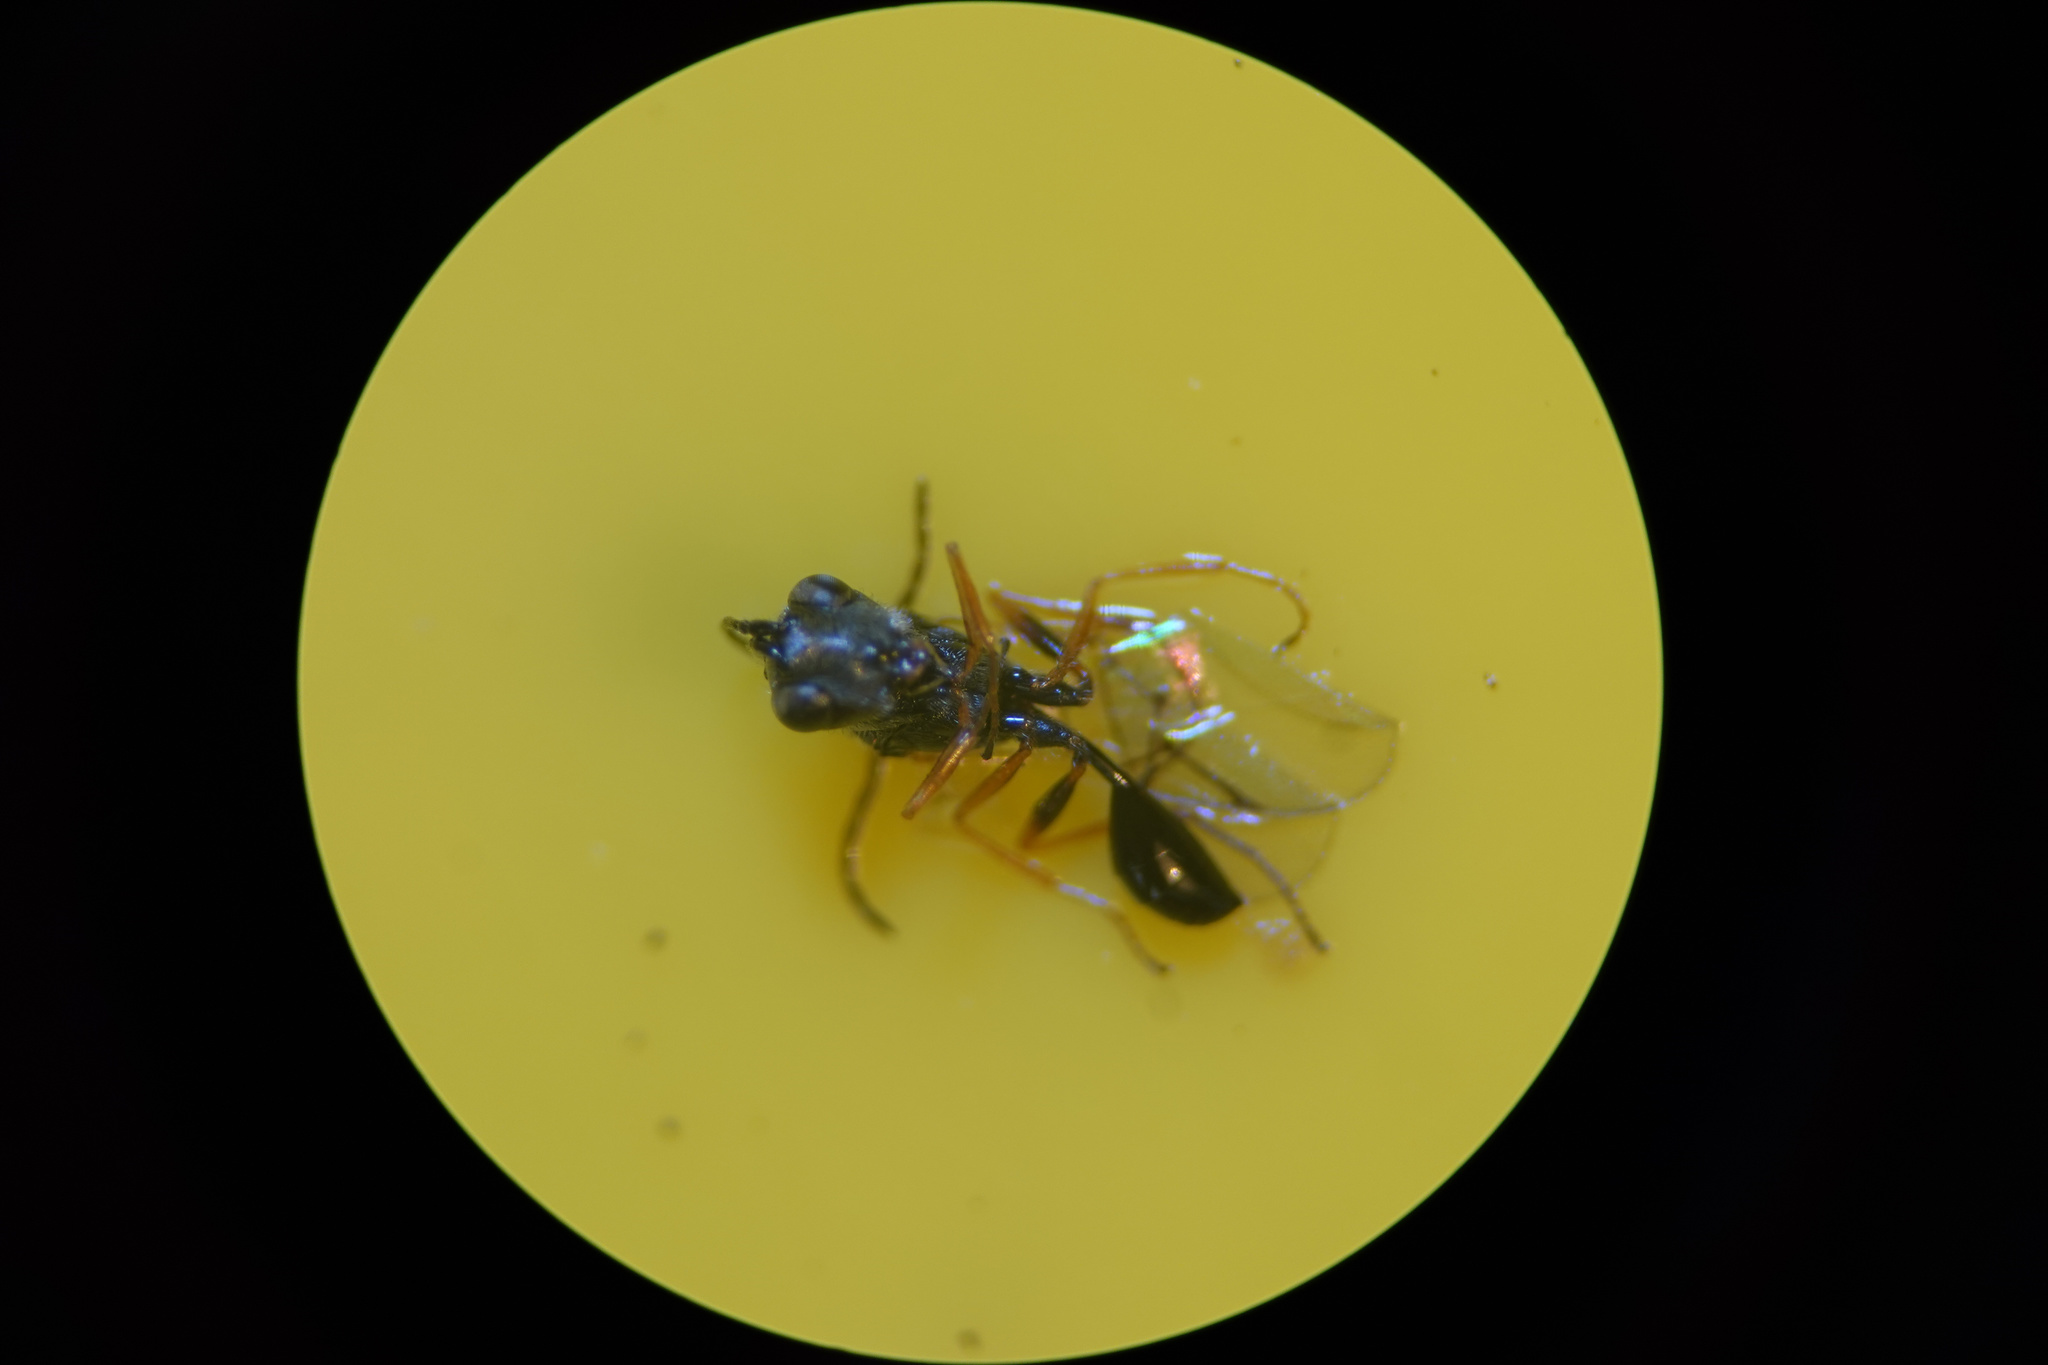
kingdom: Animalia
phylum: Arthropoda
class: Insecta
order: Hymenoptera
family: Figitidae
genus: Anacharis
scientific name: Anacharis zealandica
